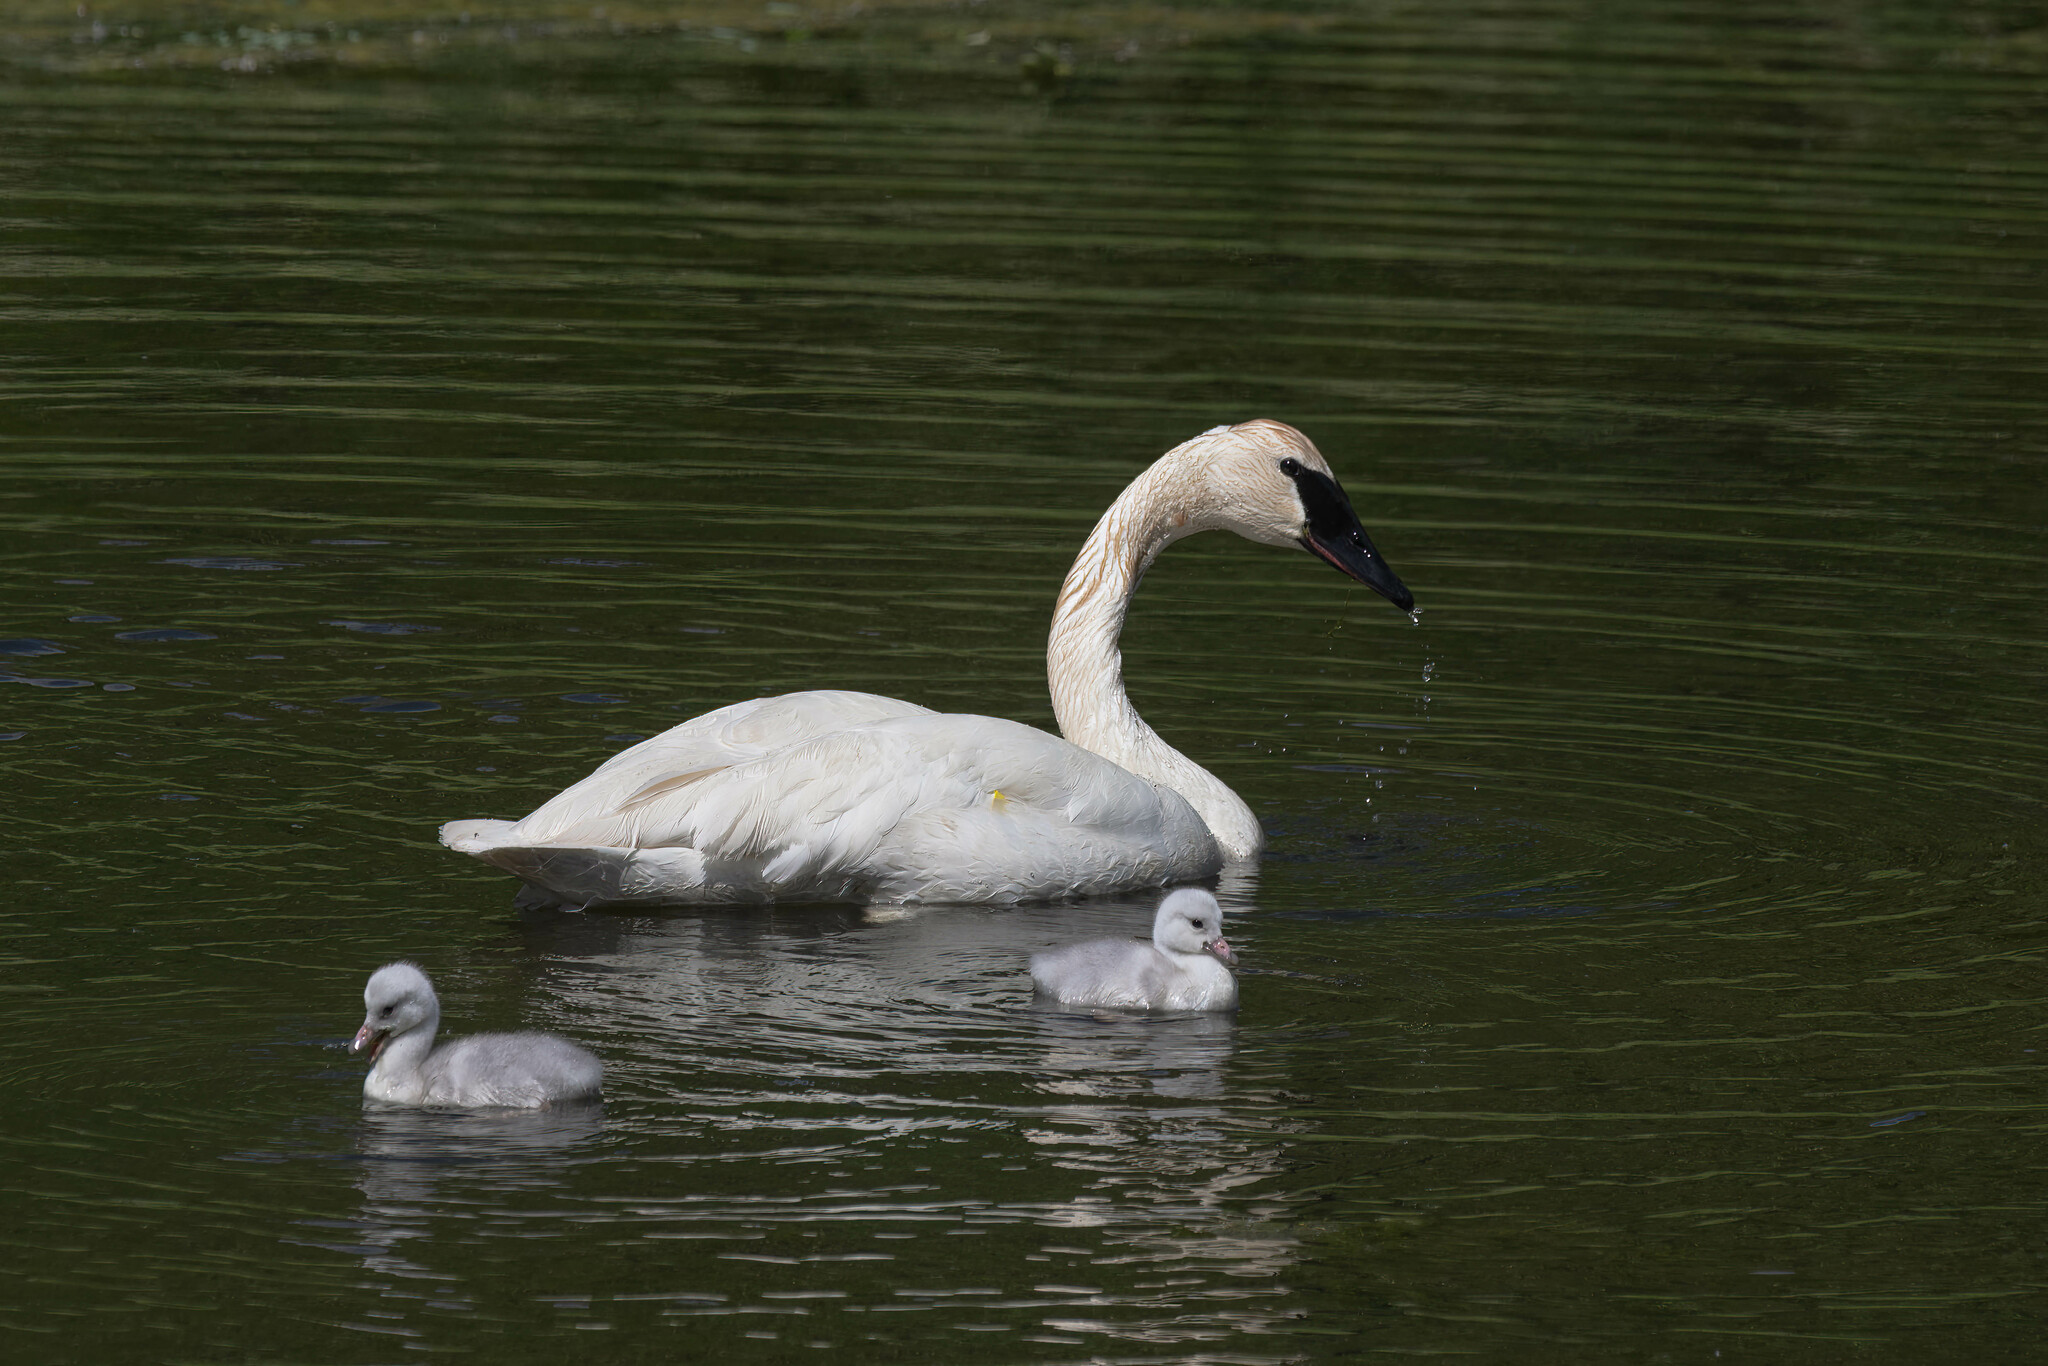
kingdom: Animalia
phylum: Chordata
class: Aves
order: Anseriformes
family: Anatidae
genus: Cygnus
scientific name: Cygnus buccinator
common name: Trumpeter swan
